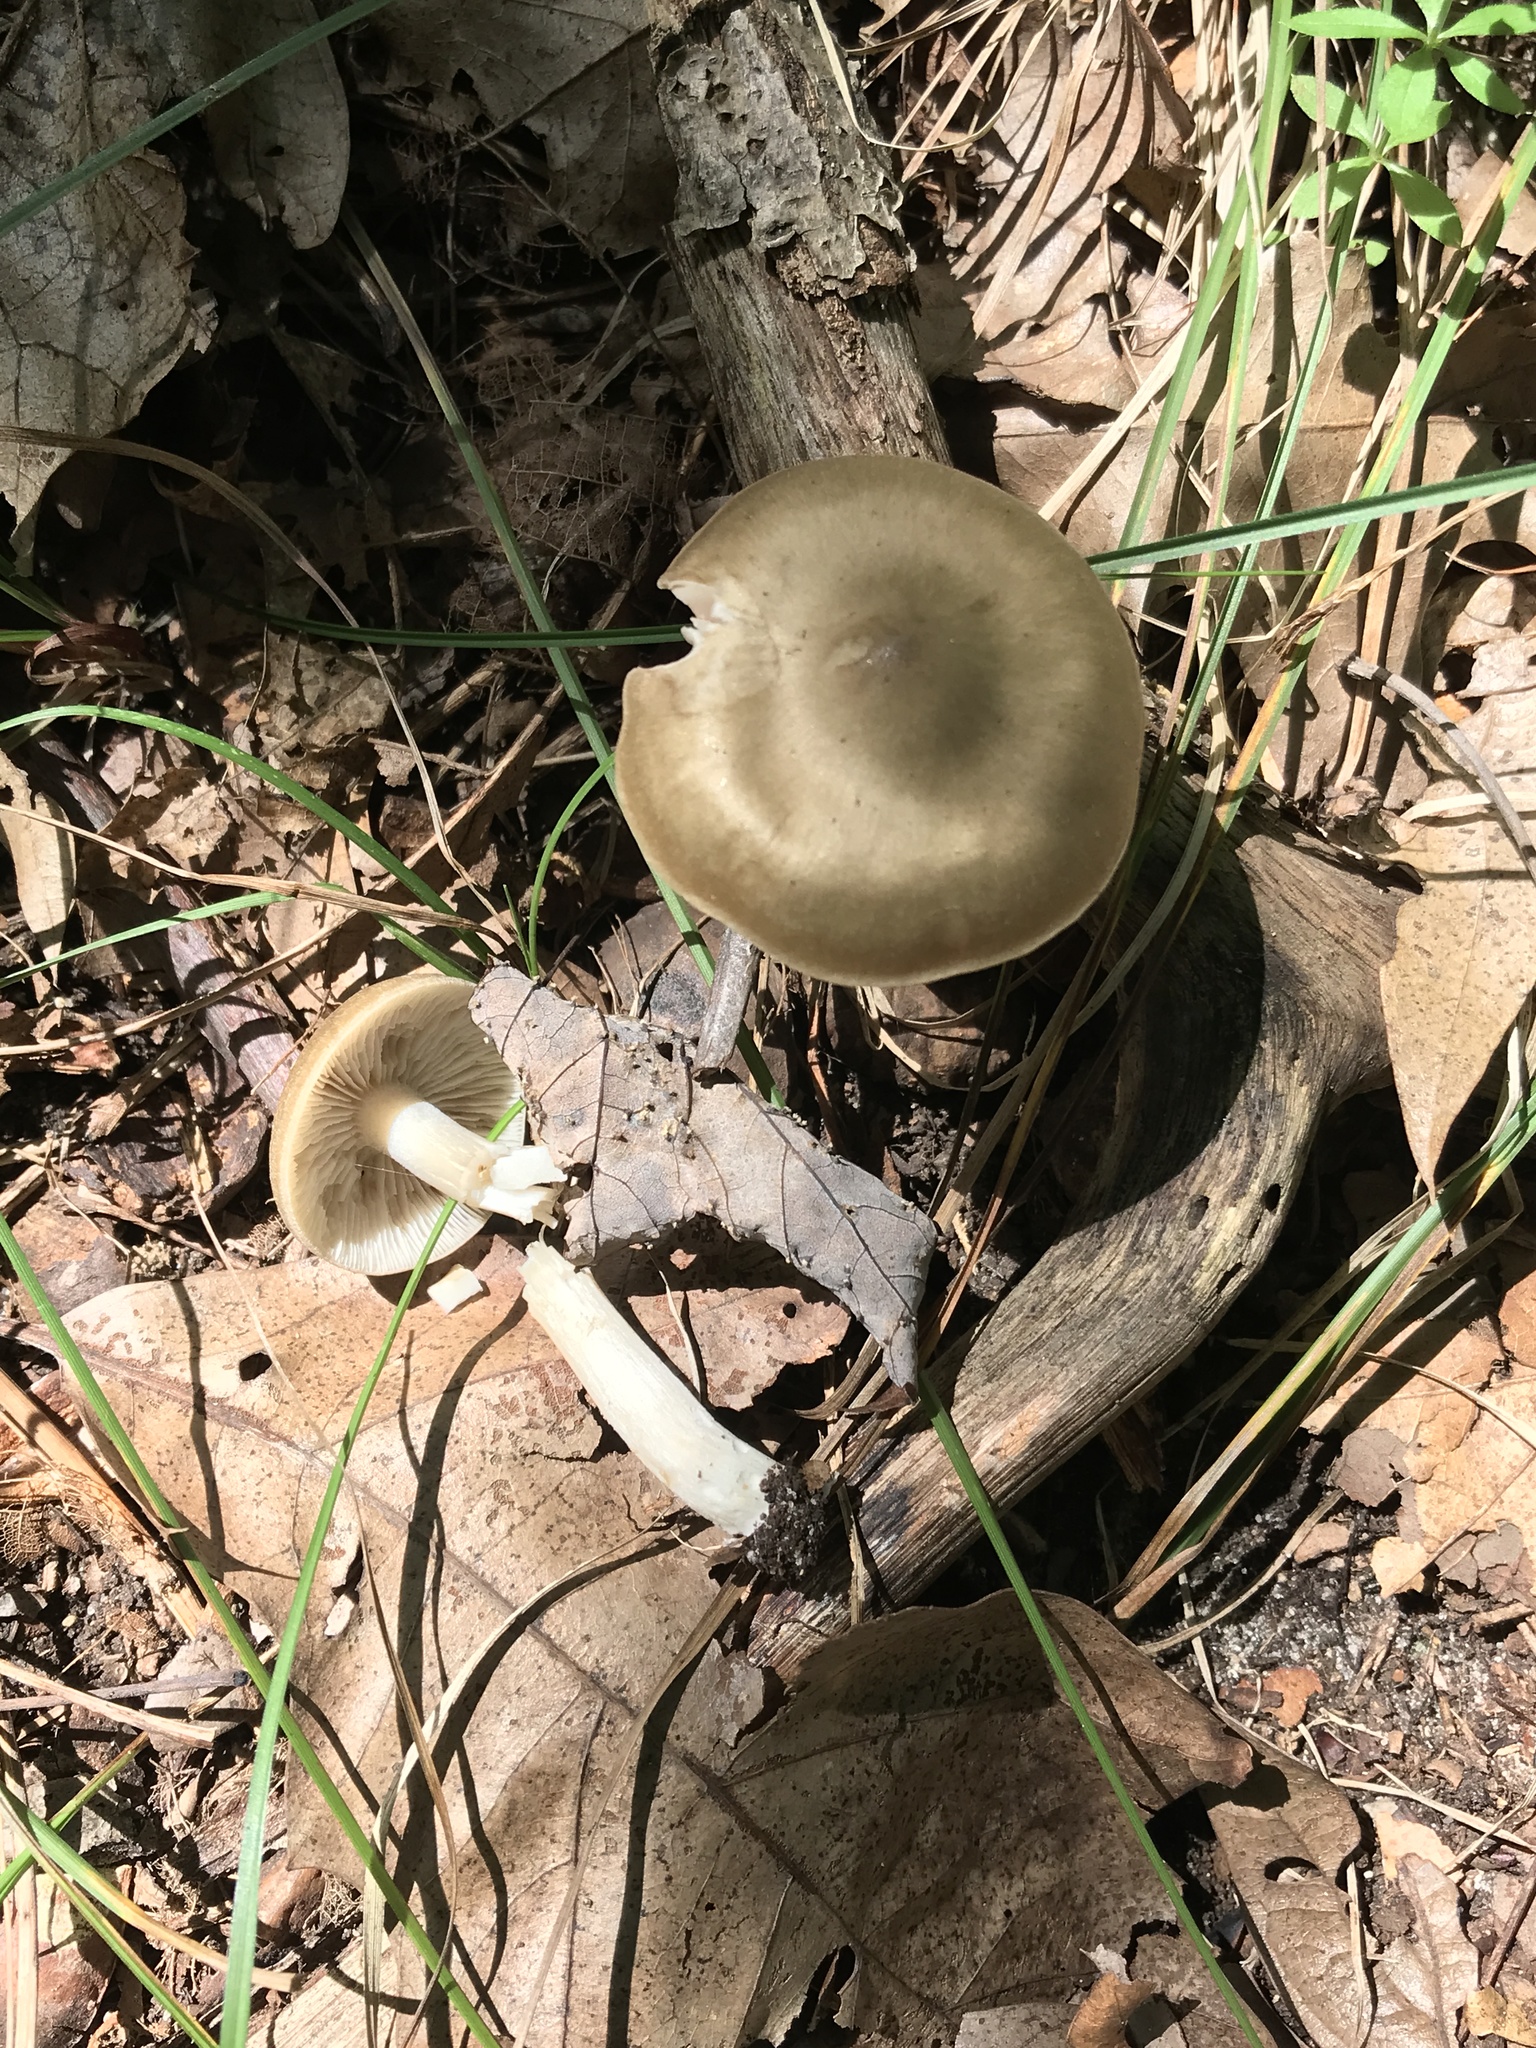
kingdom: Fungi
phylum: Basidiomycota
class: Agaricomycetes
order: Agaricales
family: Entolomataceae
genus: Entoloma
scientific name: Entoloma griseum
